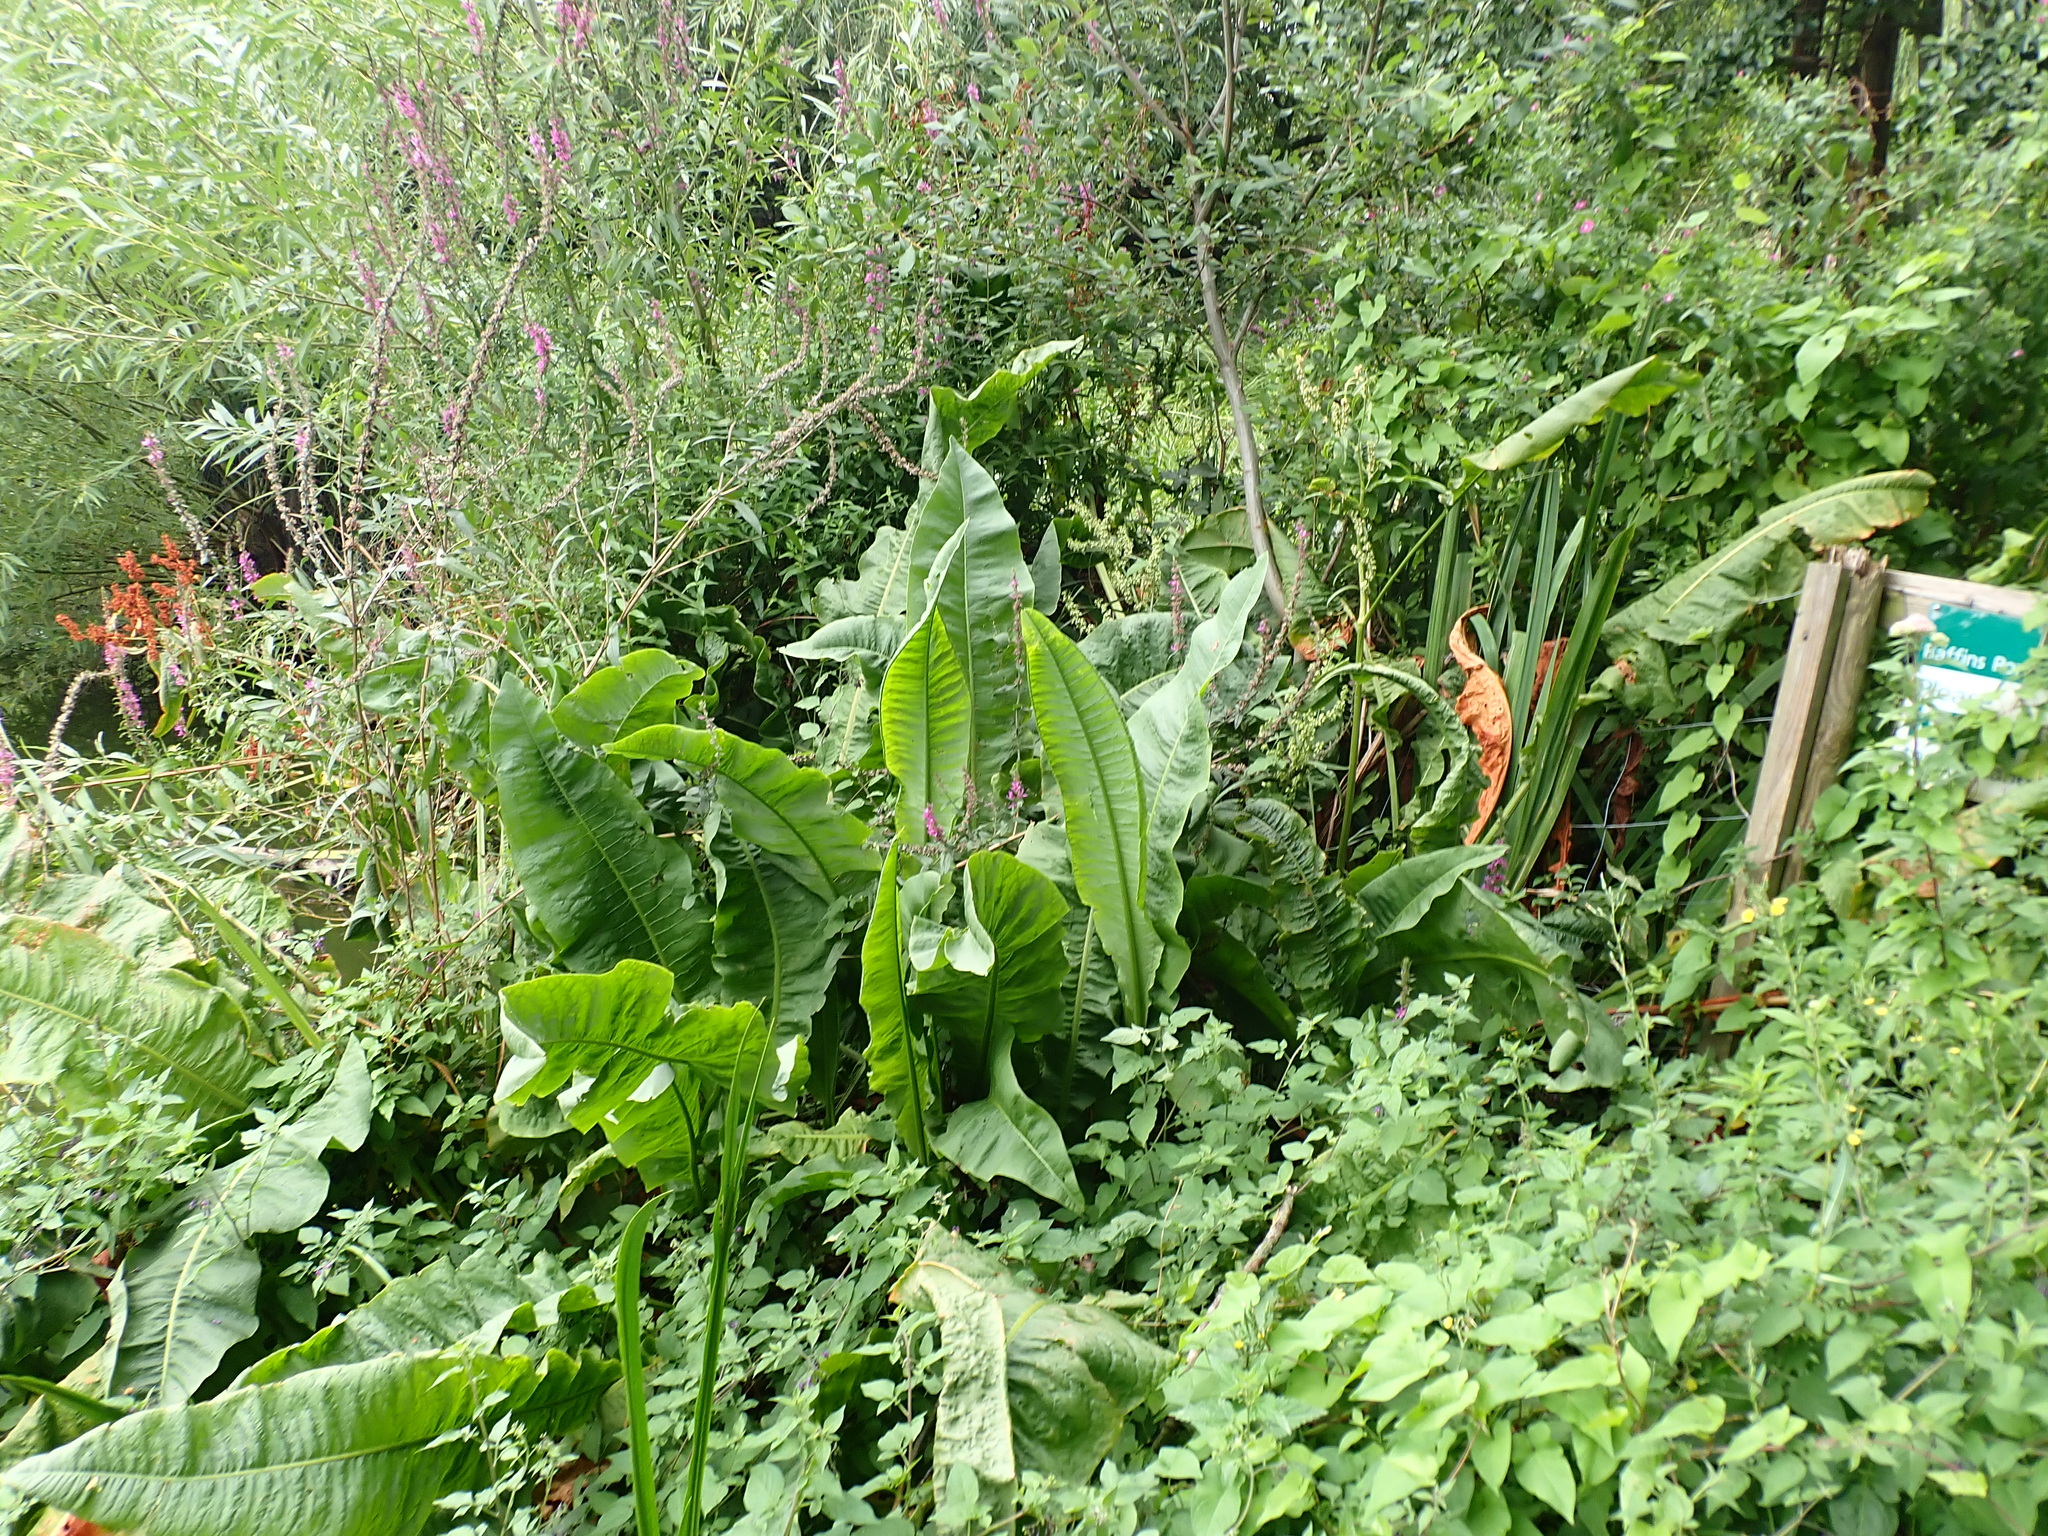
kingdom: Plantae
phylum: Tracheophyta
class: Magnoliopsida
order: Caryophyllales
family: Polygonaceae
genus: Rumex
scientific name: Rumex hydrolapathum
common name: Water dock
